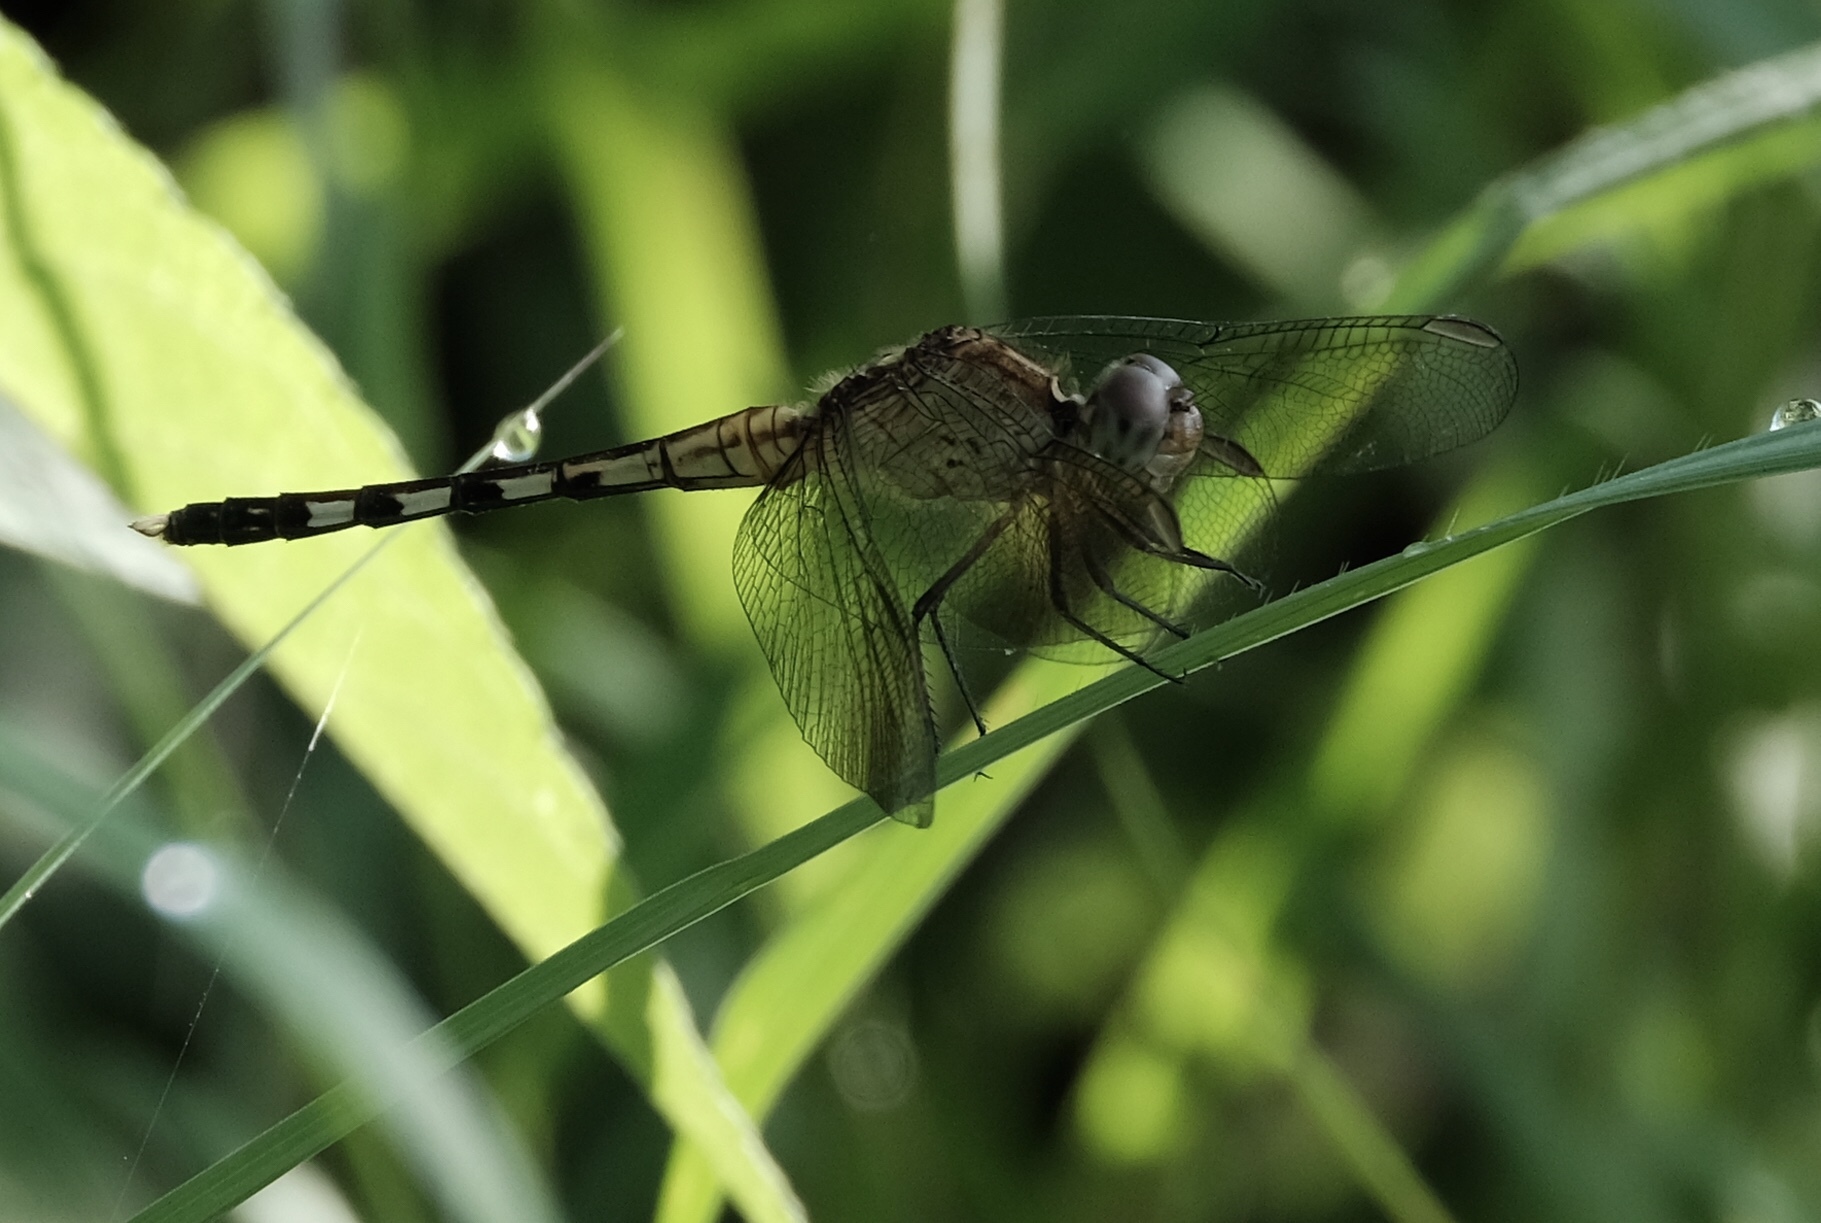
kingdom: Animalia
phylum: Arthropoda
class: Insecta
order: Odonata
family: Libellulidae
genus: Erythrodiplax
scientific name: Erythrodiplax umbrata
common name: Band-winged dragonlet
